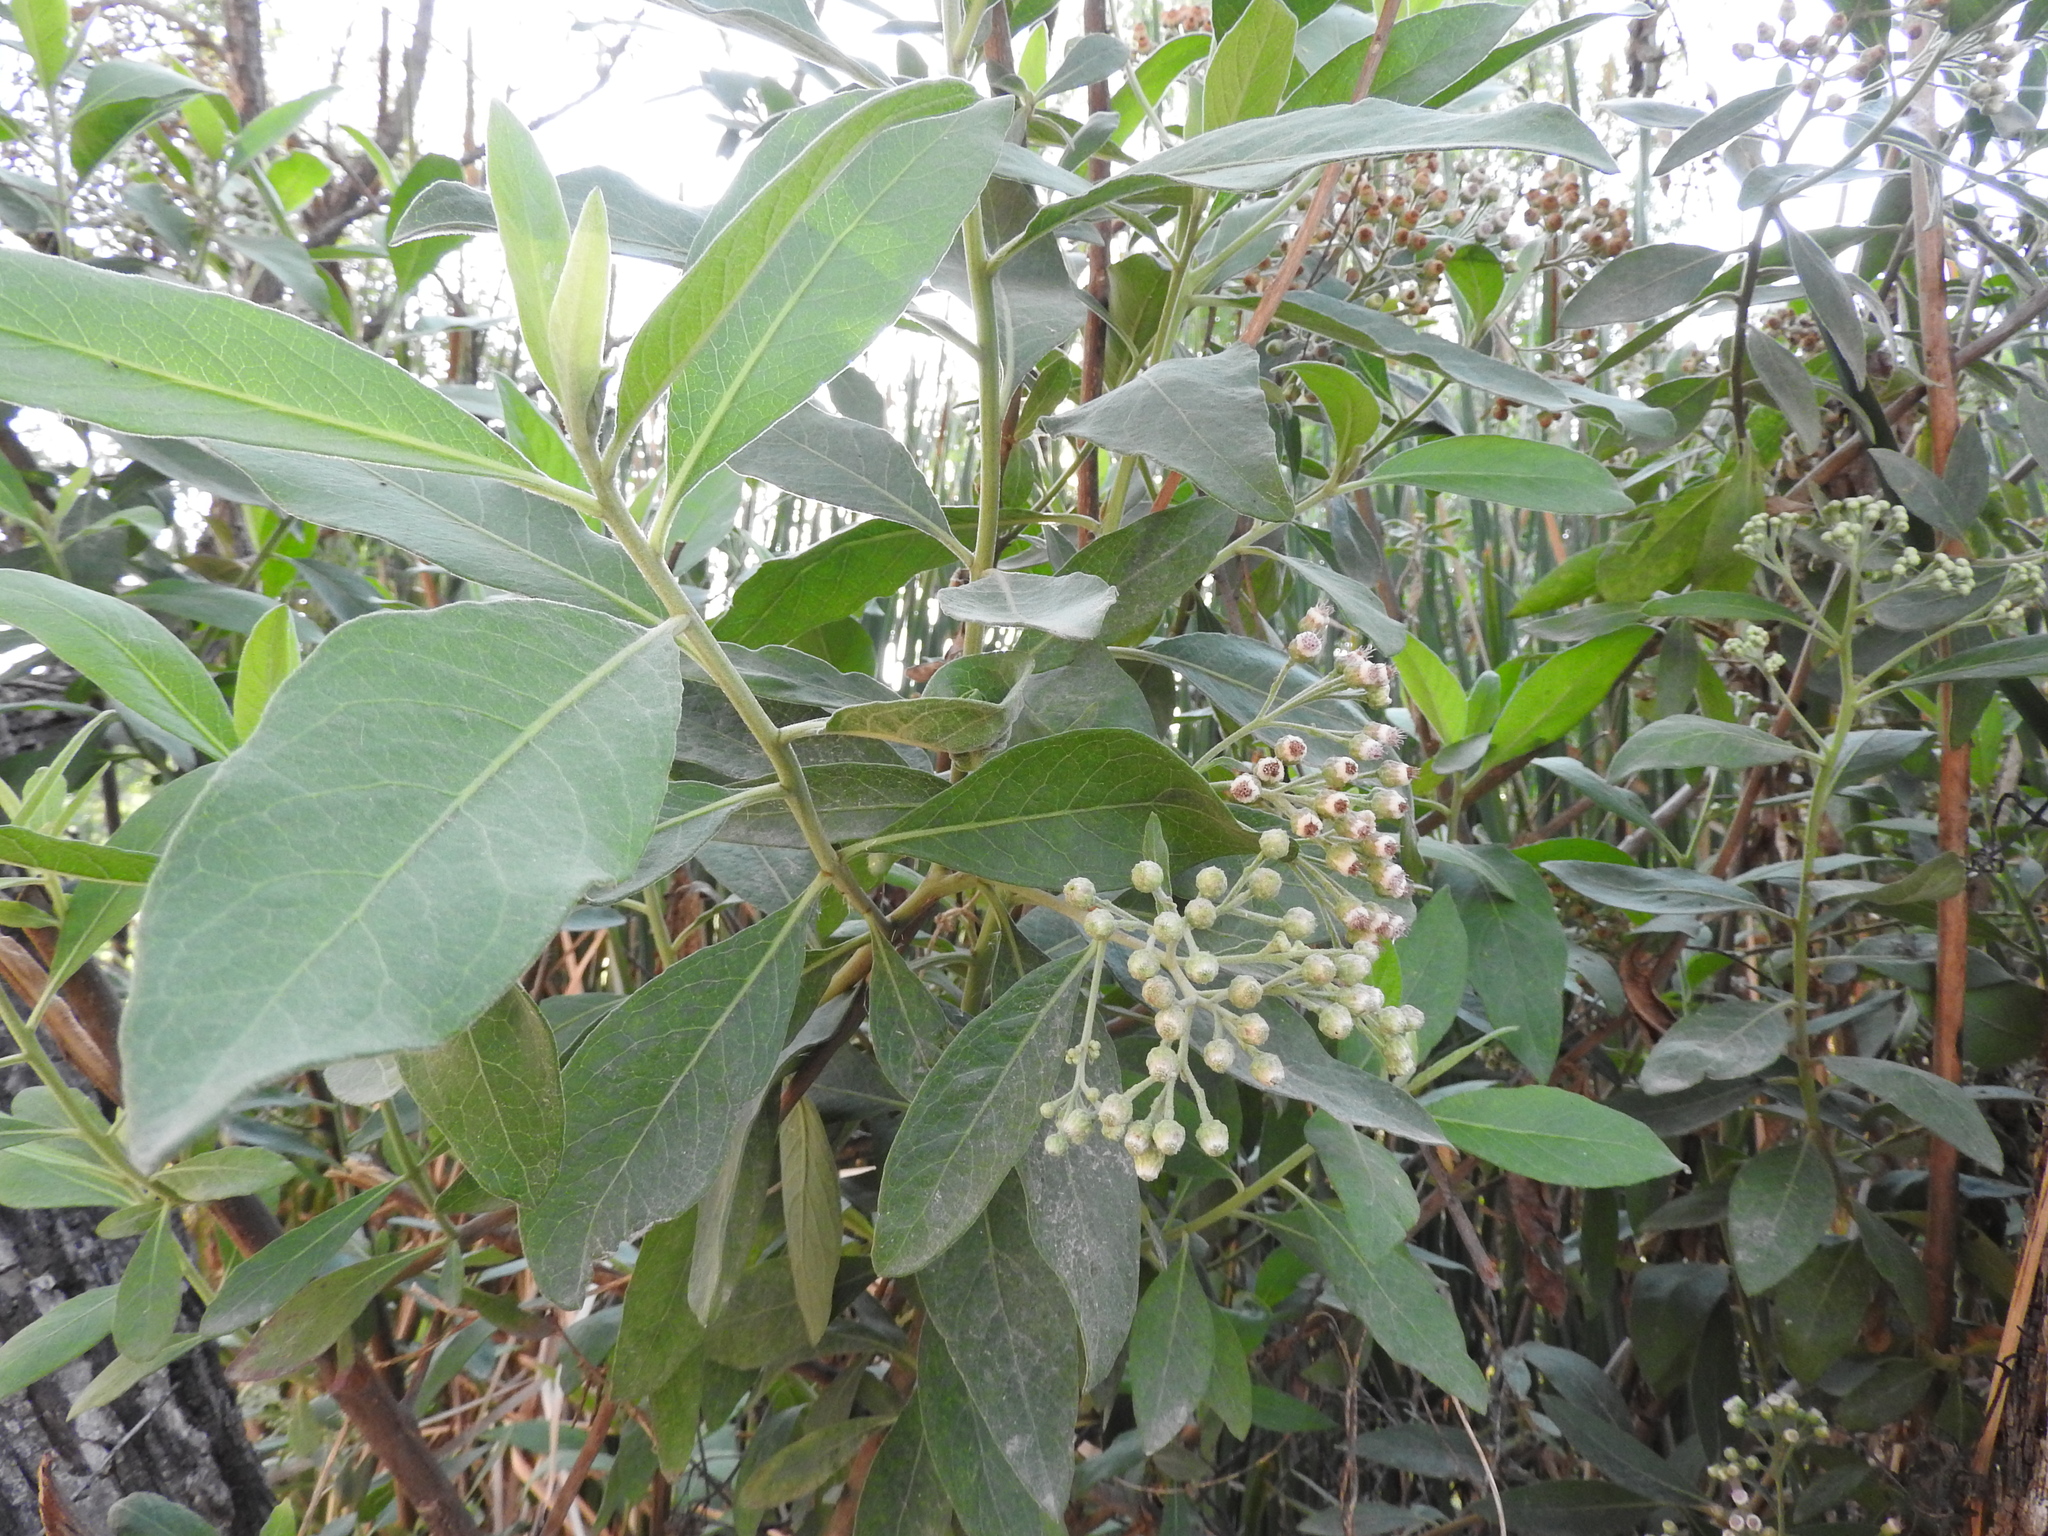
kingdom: Plantae
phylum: Tracheophyta
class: Magnoliopsida
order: Asterales
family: Asteraceae
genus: Pluchea
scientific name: Pluchea carolinensis
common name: Marsh fleabane
